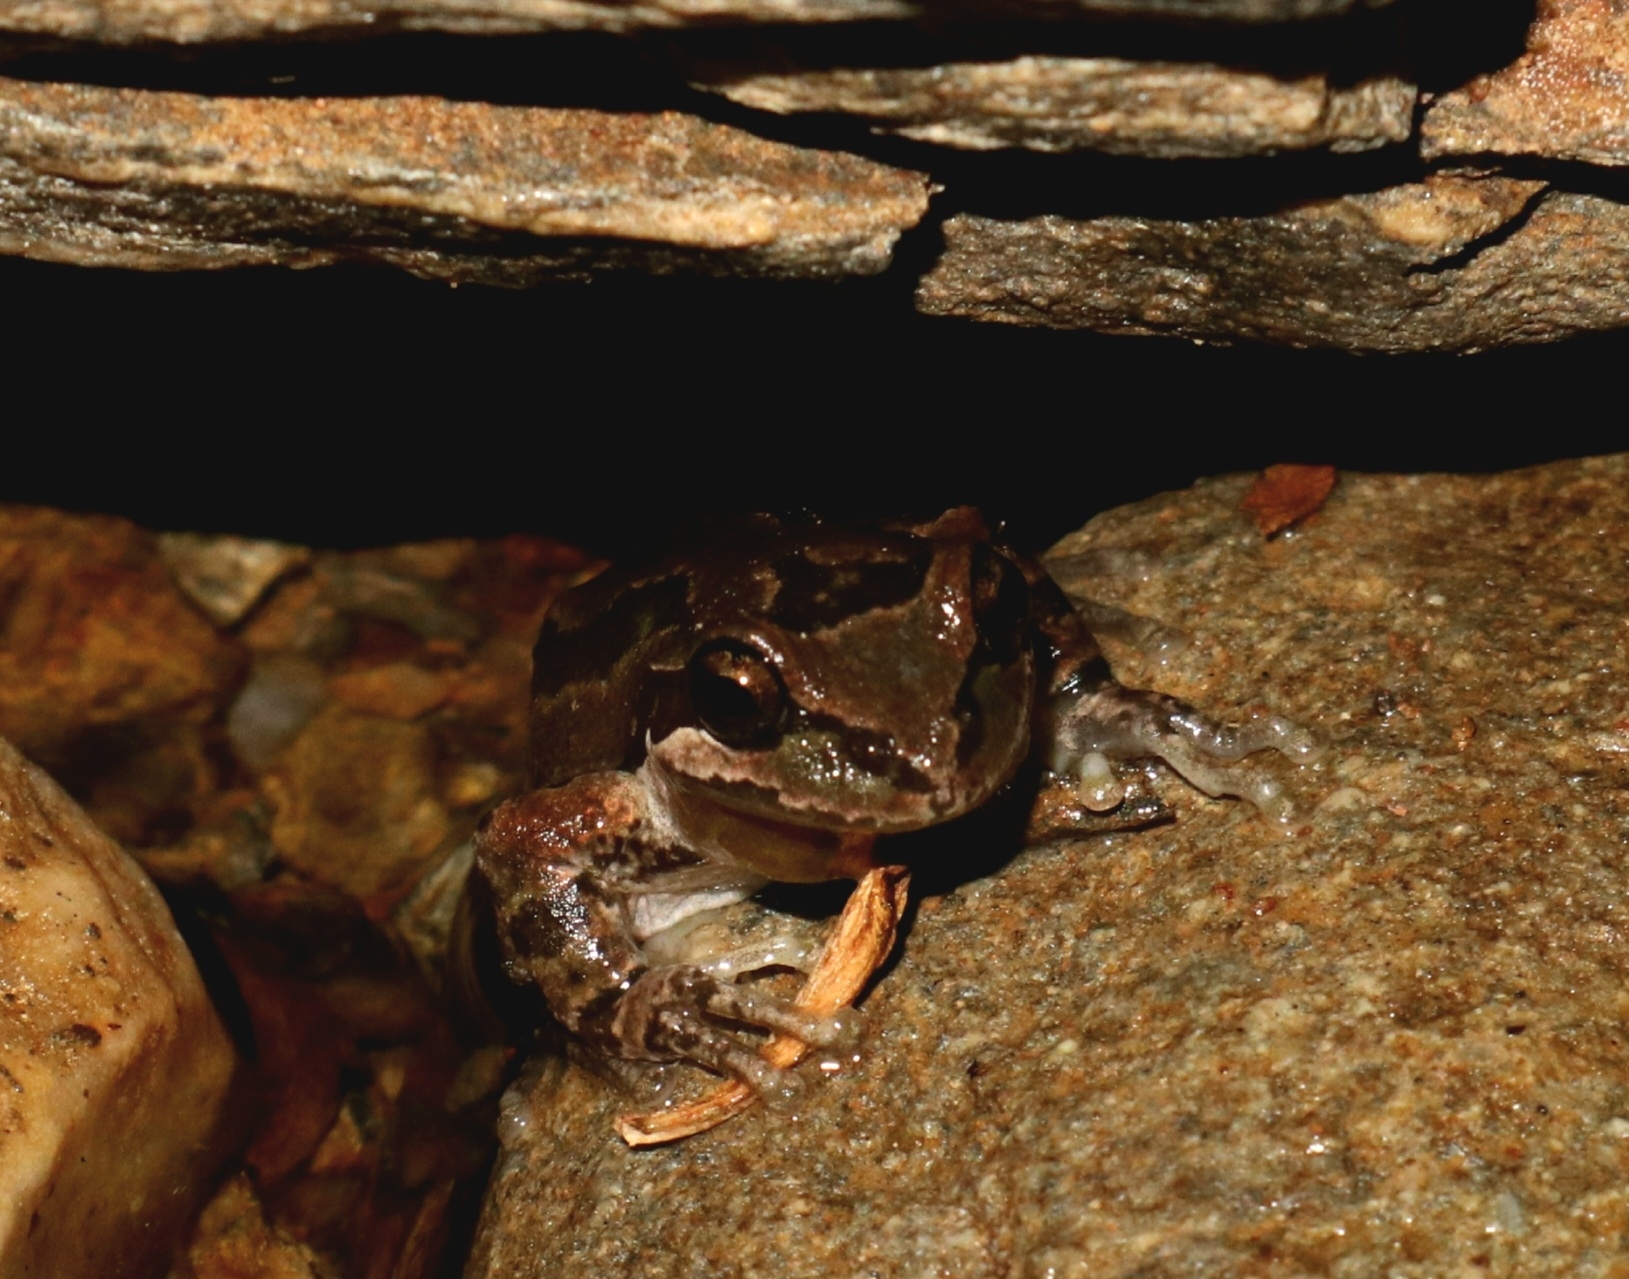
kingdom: Animalia
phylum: Chordata
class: Amphibia
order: Anura
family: Hylidae
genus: Pseudacris
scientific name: Pseudacris regilla
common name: Pacific chorus frog
